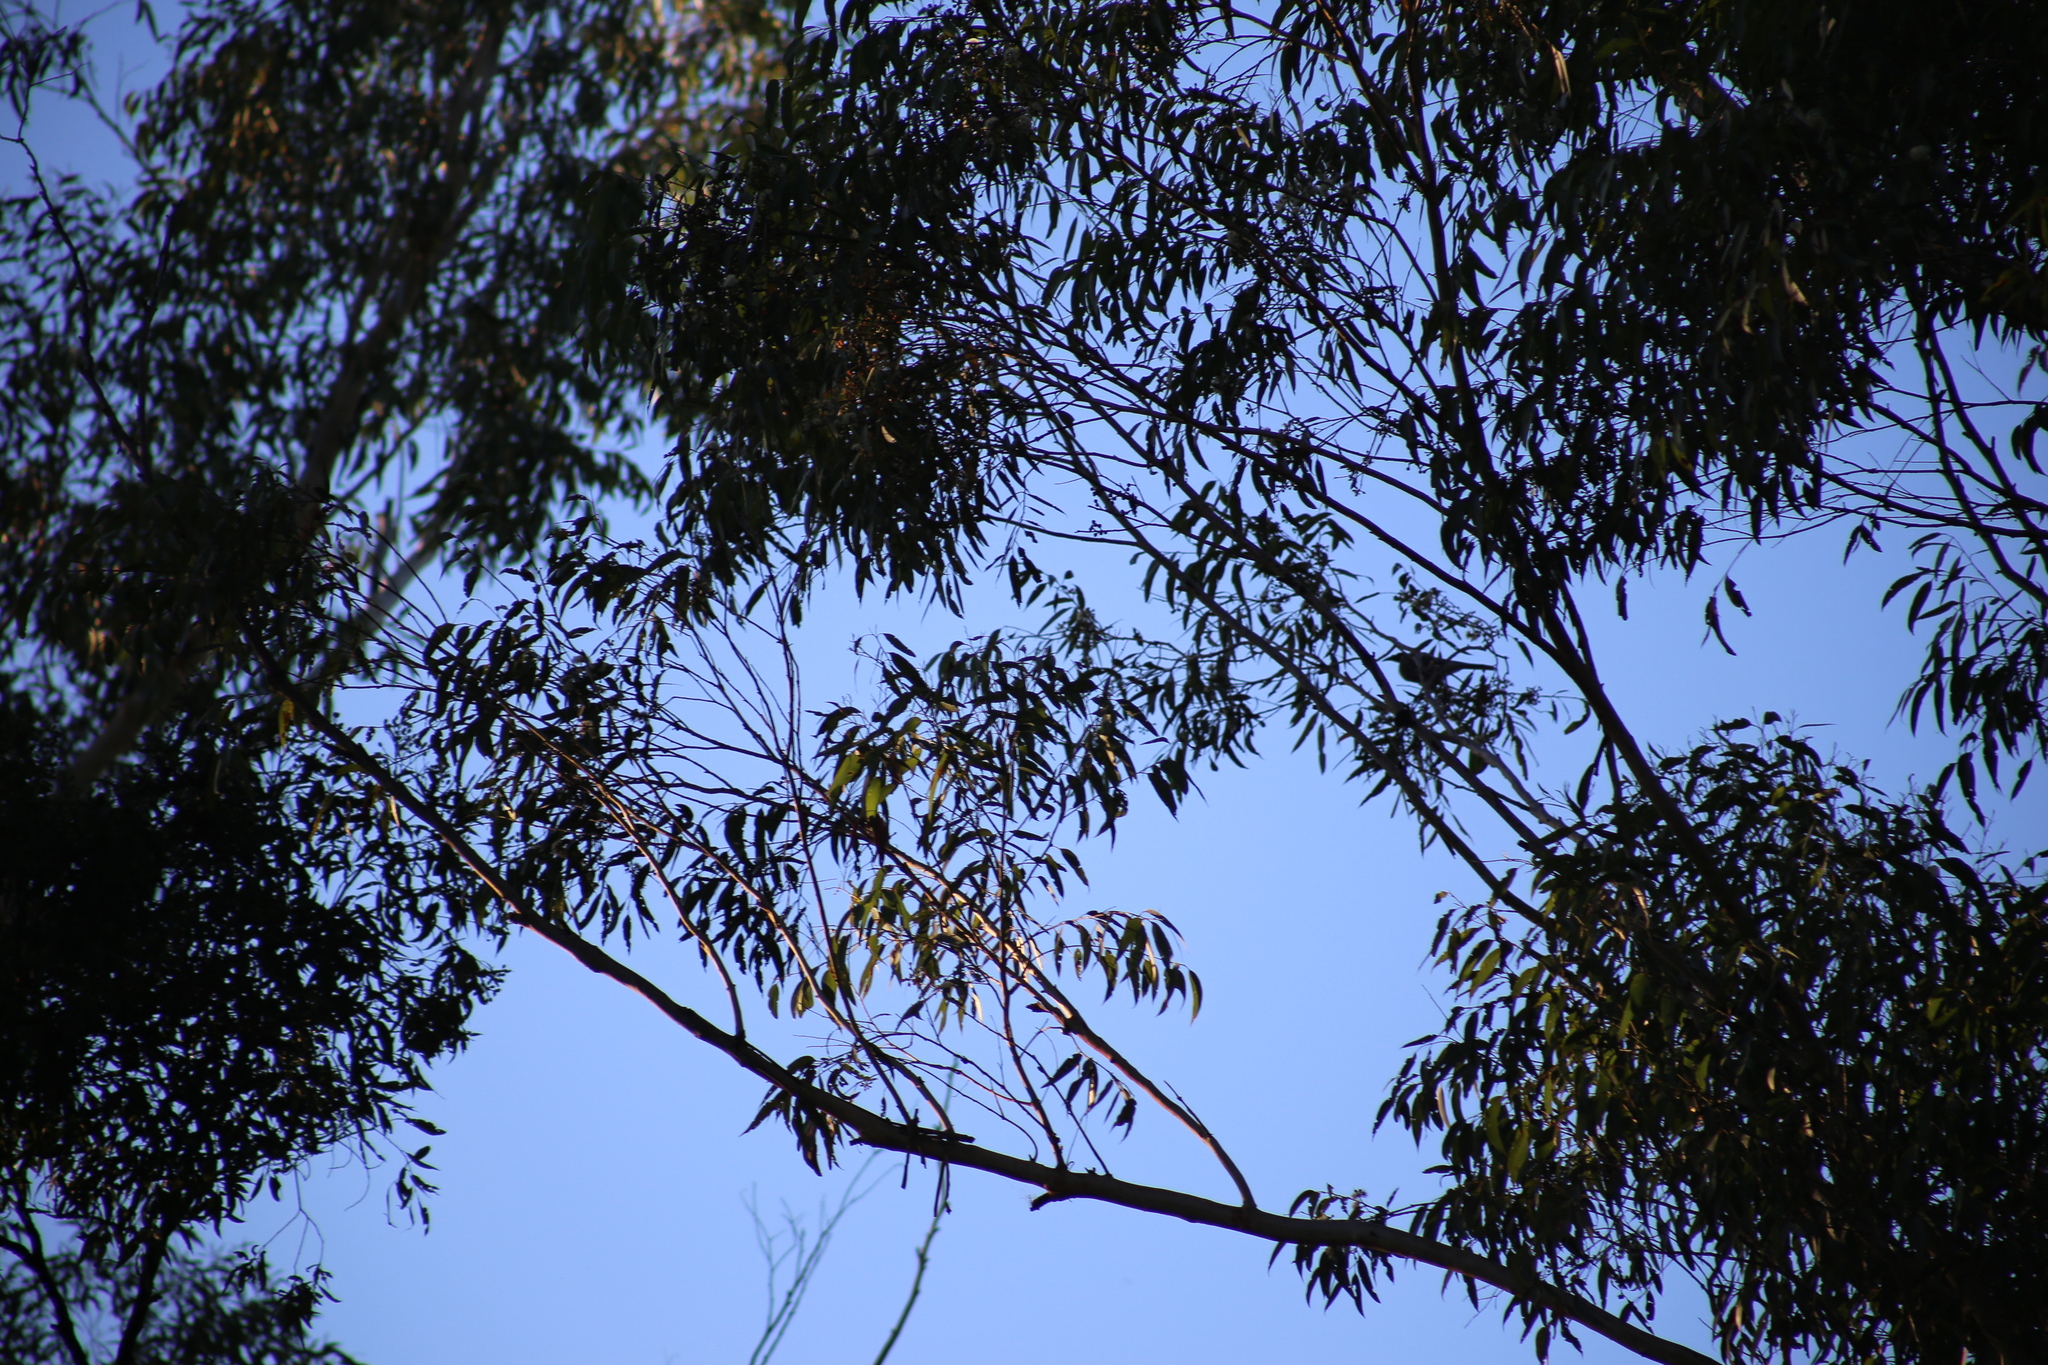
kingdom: Animalia
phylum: Chordata
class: Aves
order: Passeriformes
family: Meliphagidae
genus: Philemon
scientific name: Philemon corniculatus
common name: Noisy friarbird
